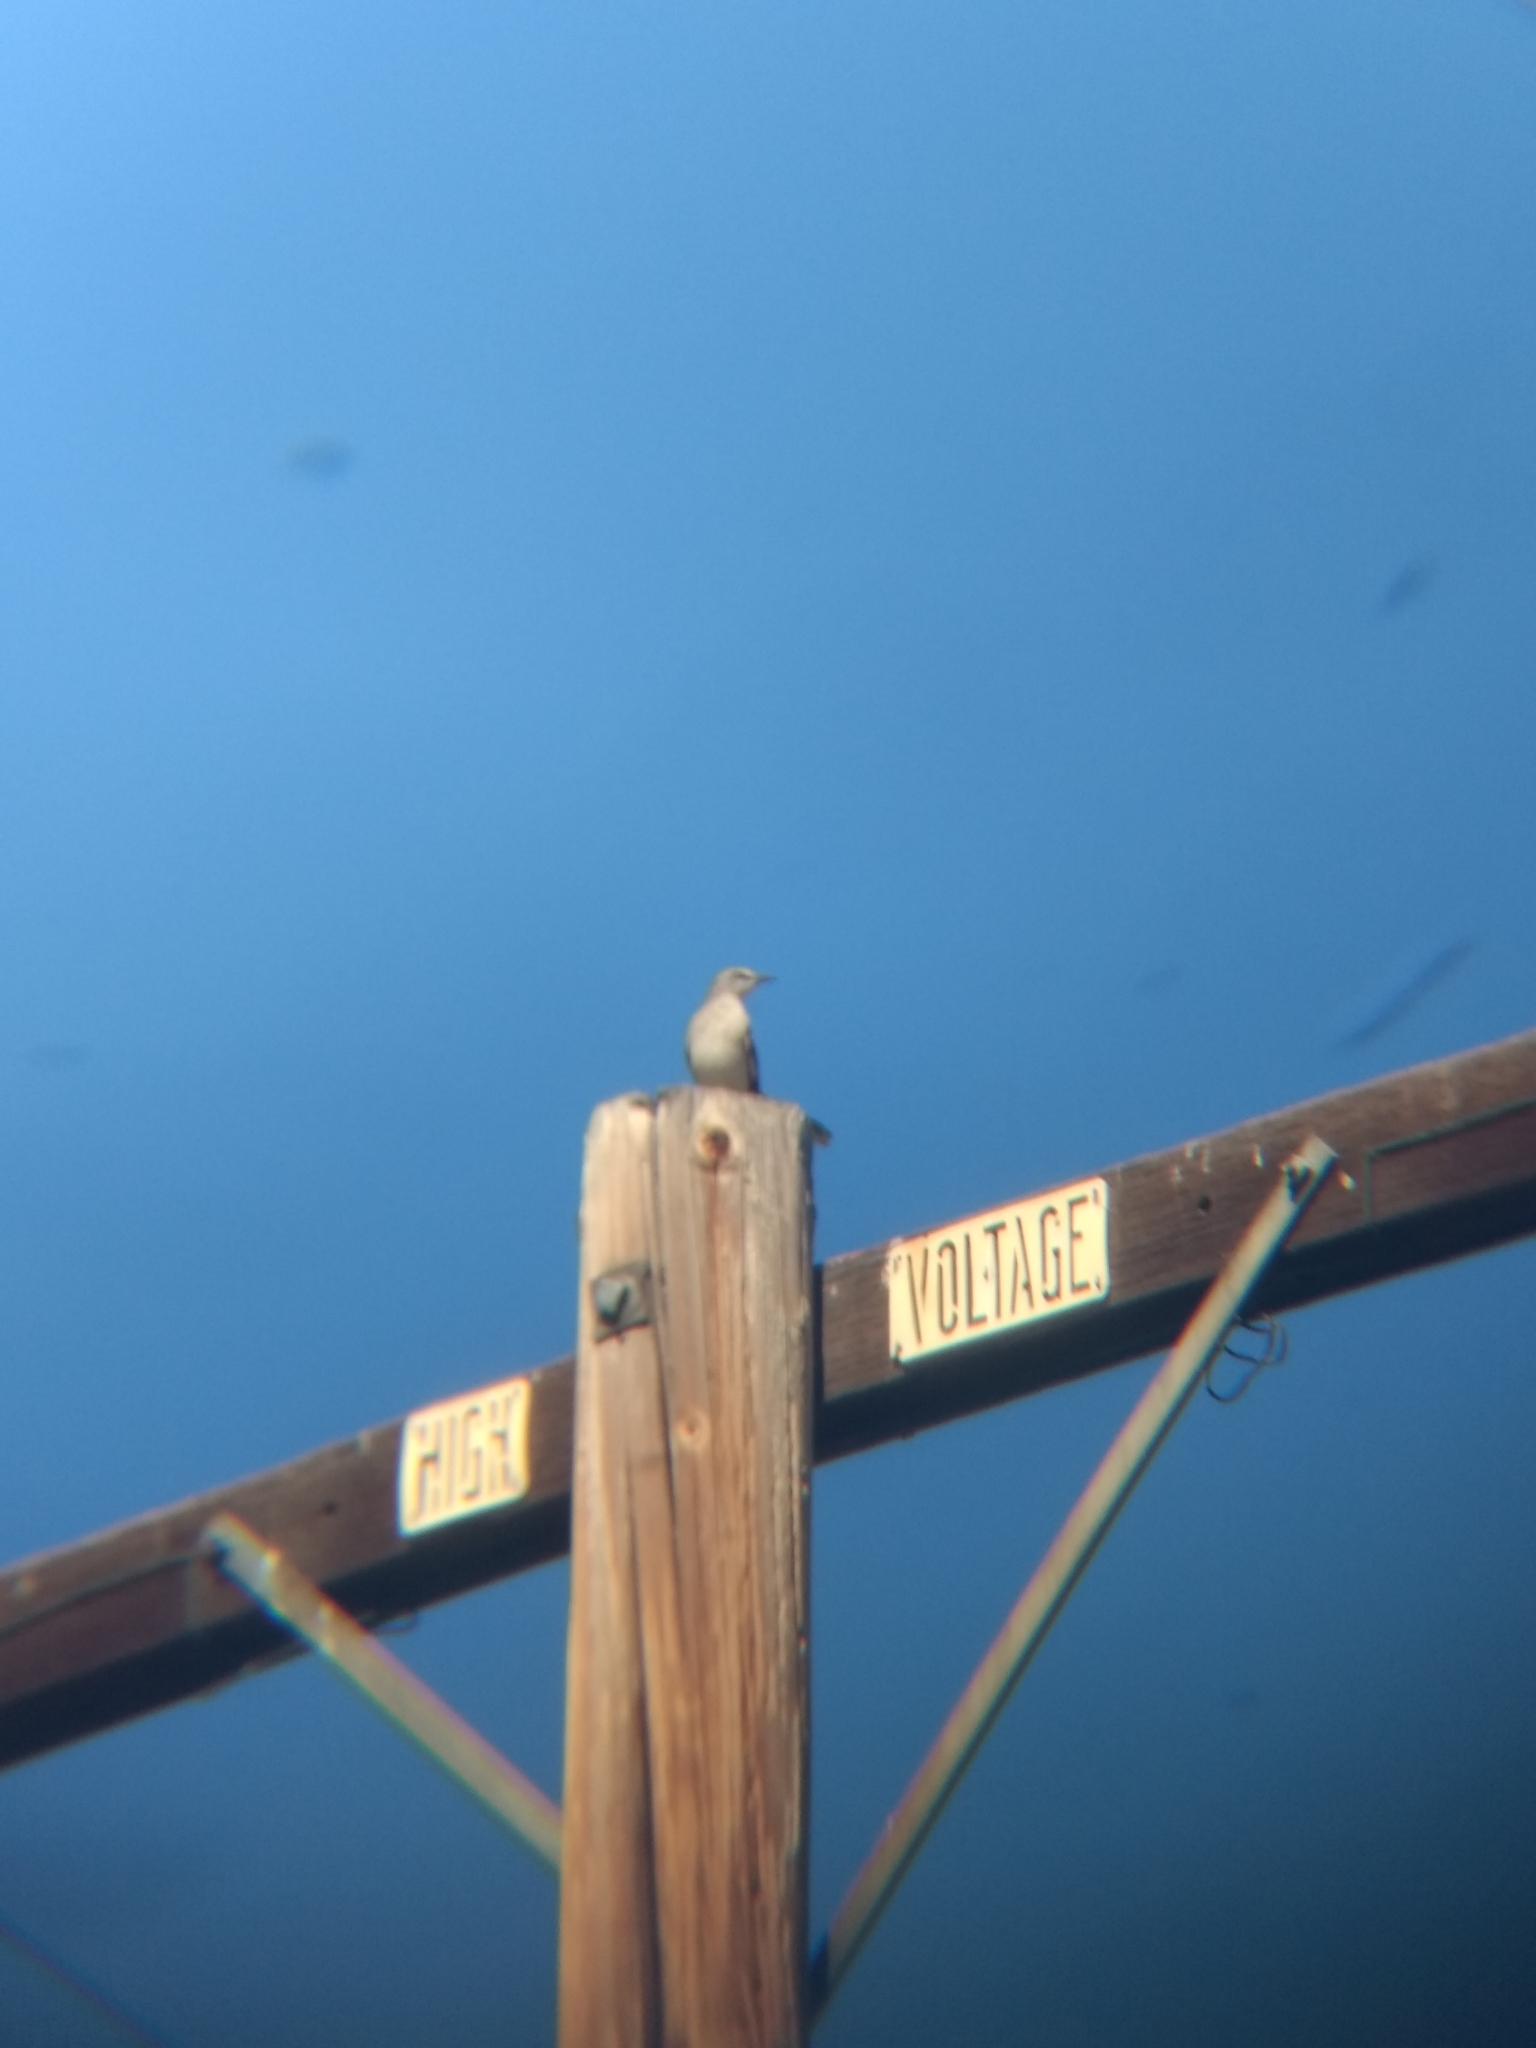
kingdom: Animalia
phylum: Chordata
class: Aves
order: Passeriformes
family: Mimidae
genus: Mimus
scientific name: Mimus polyglottos
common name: Northern mockingbird
